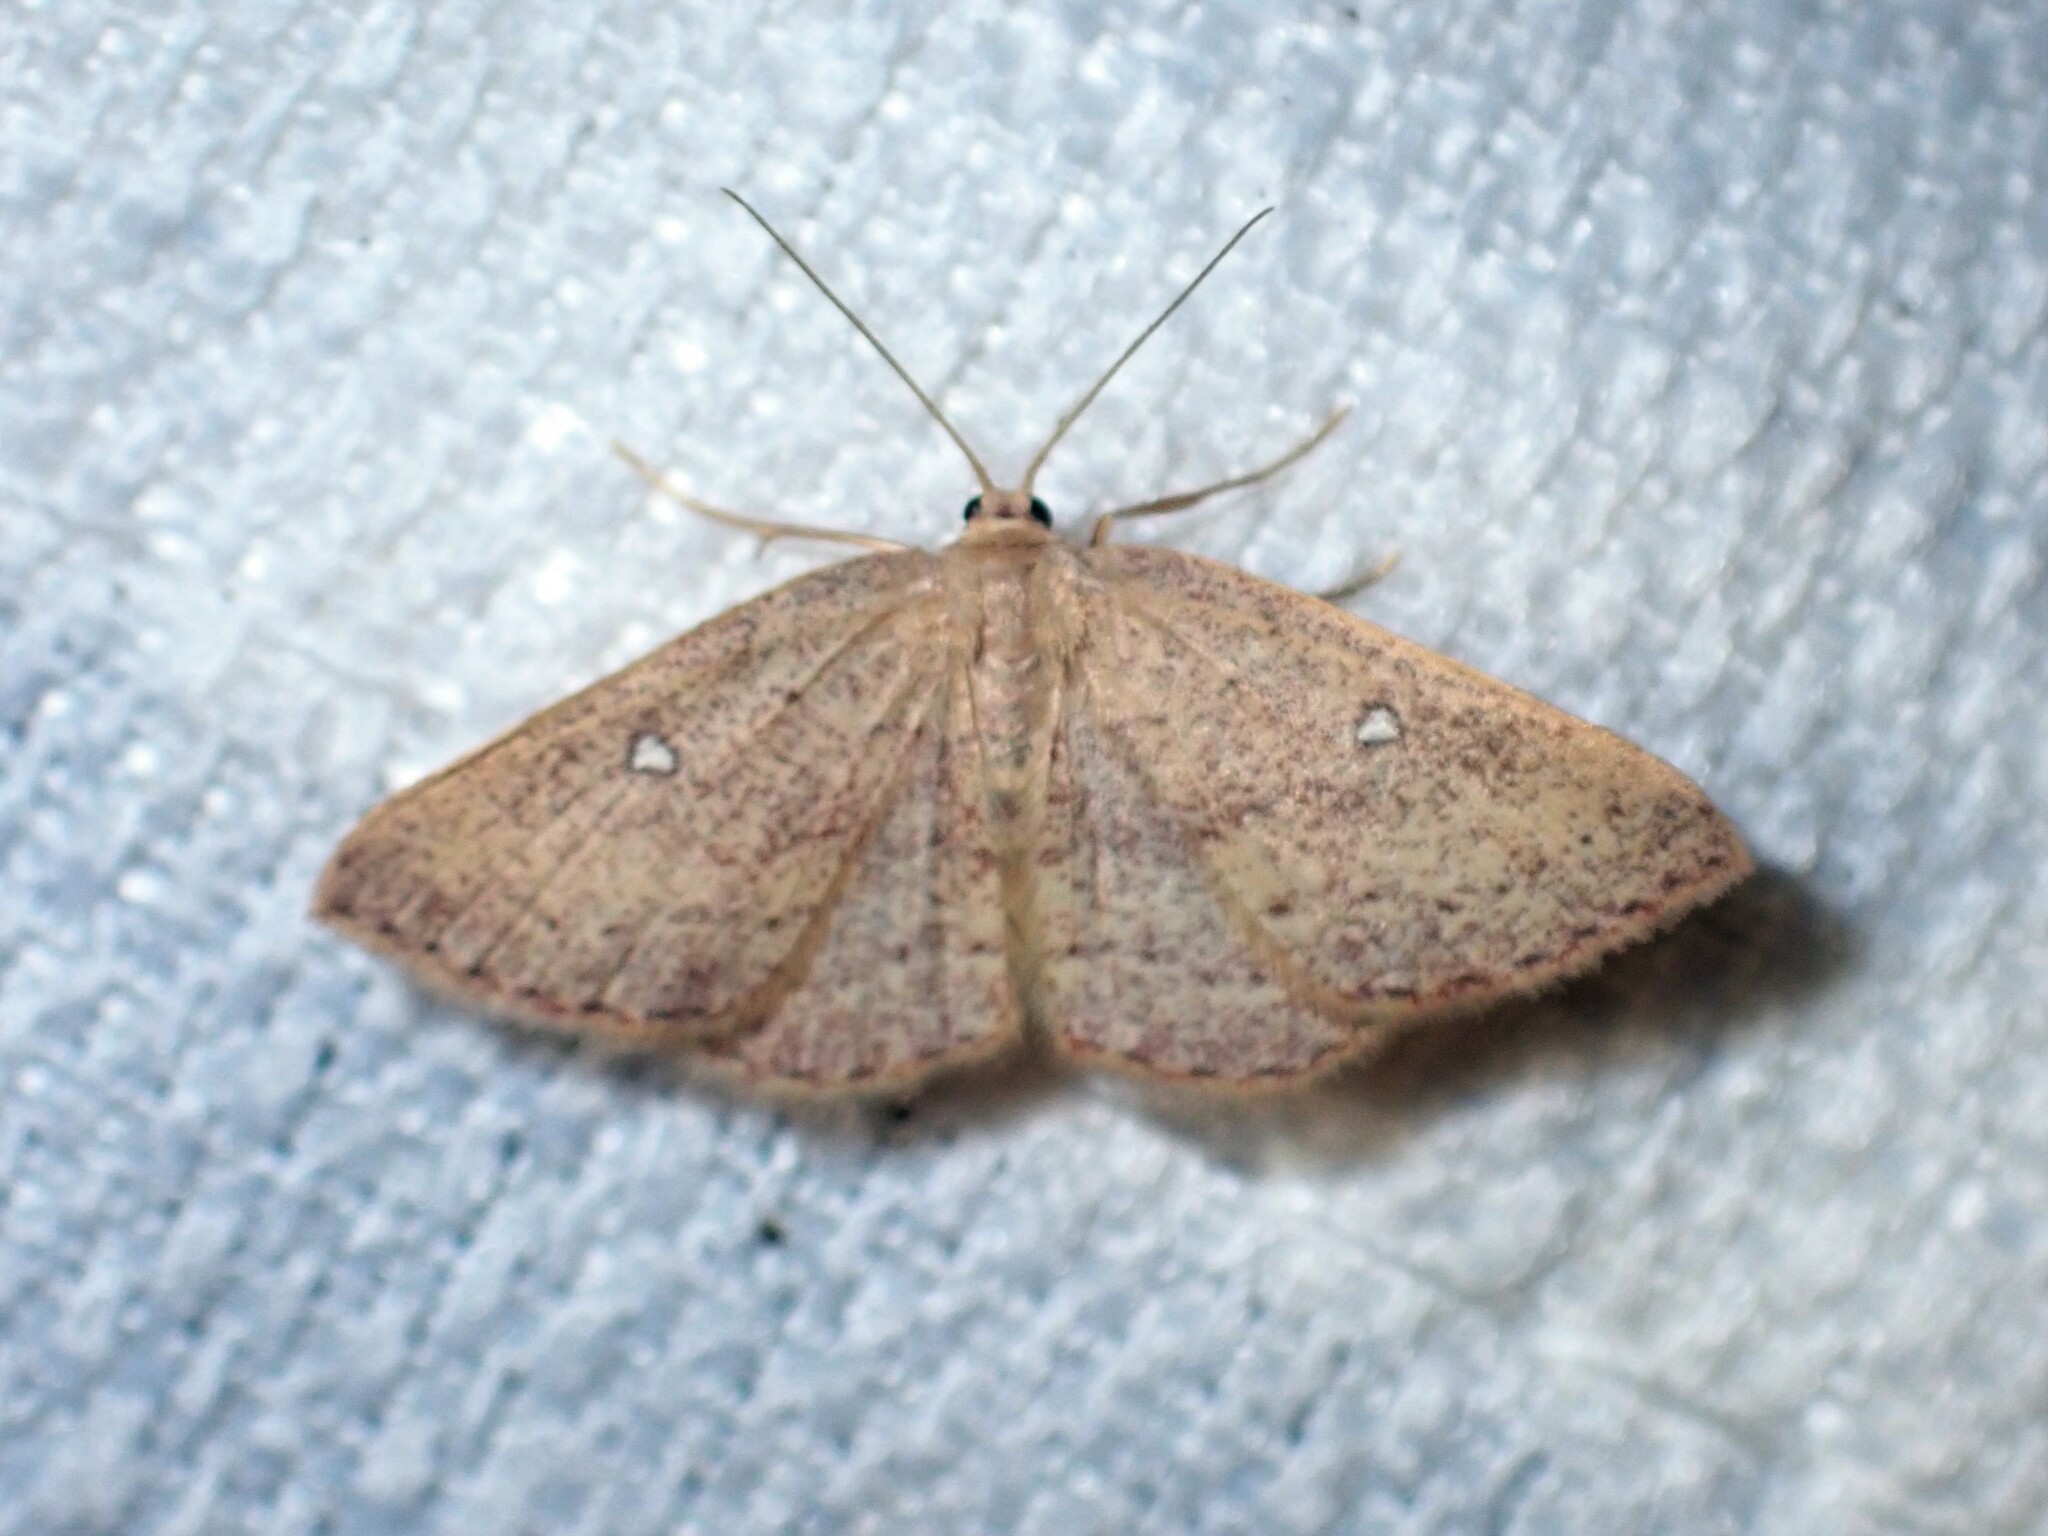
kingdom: Animalia
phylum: Arthropoda
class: Insecta
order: Lepidoptera
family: Geometridae
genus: Cyclophora
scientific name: Cyclophora azorensis
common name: Geometer moth
